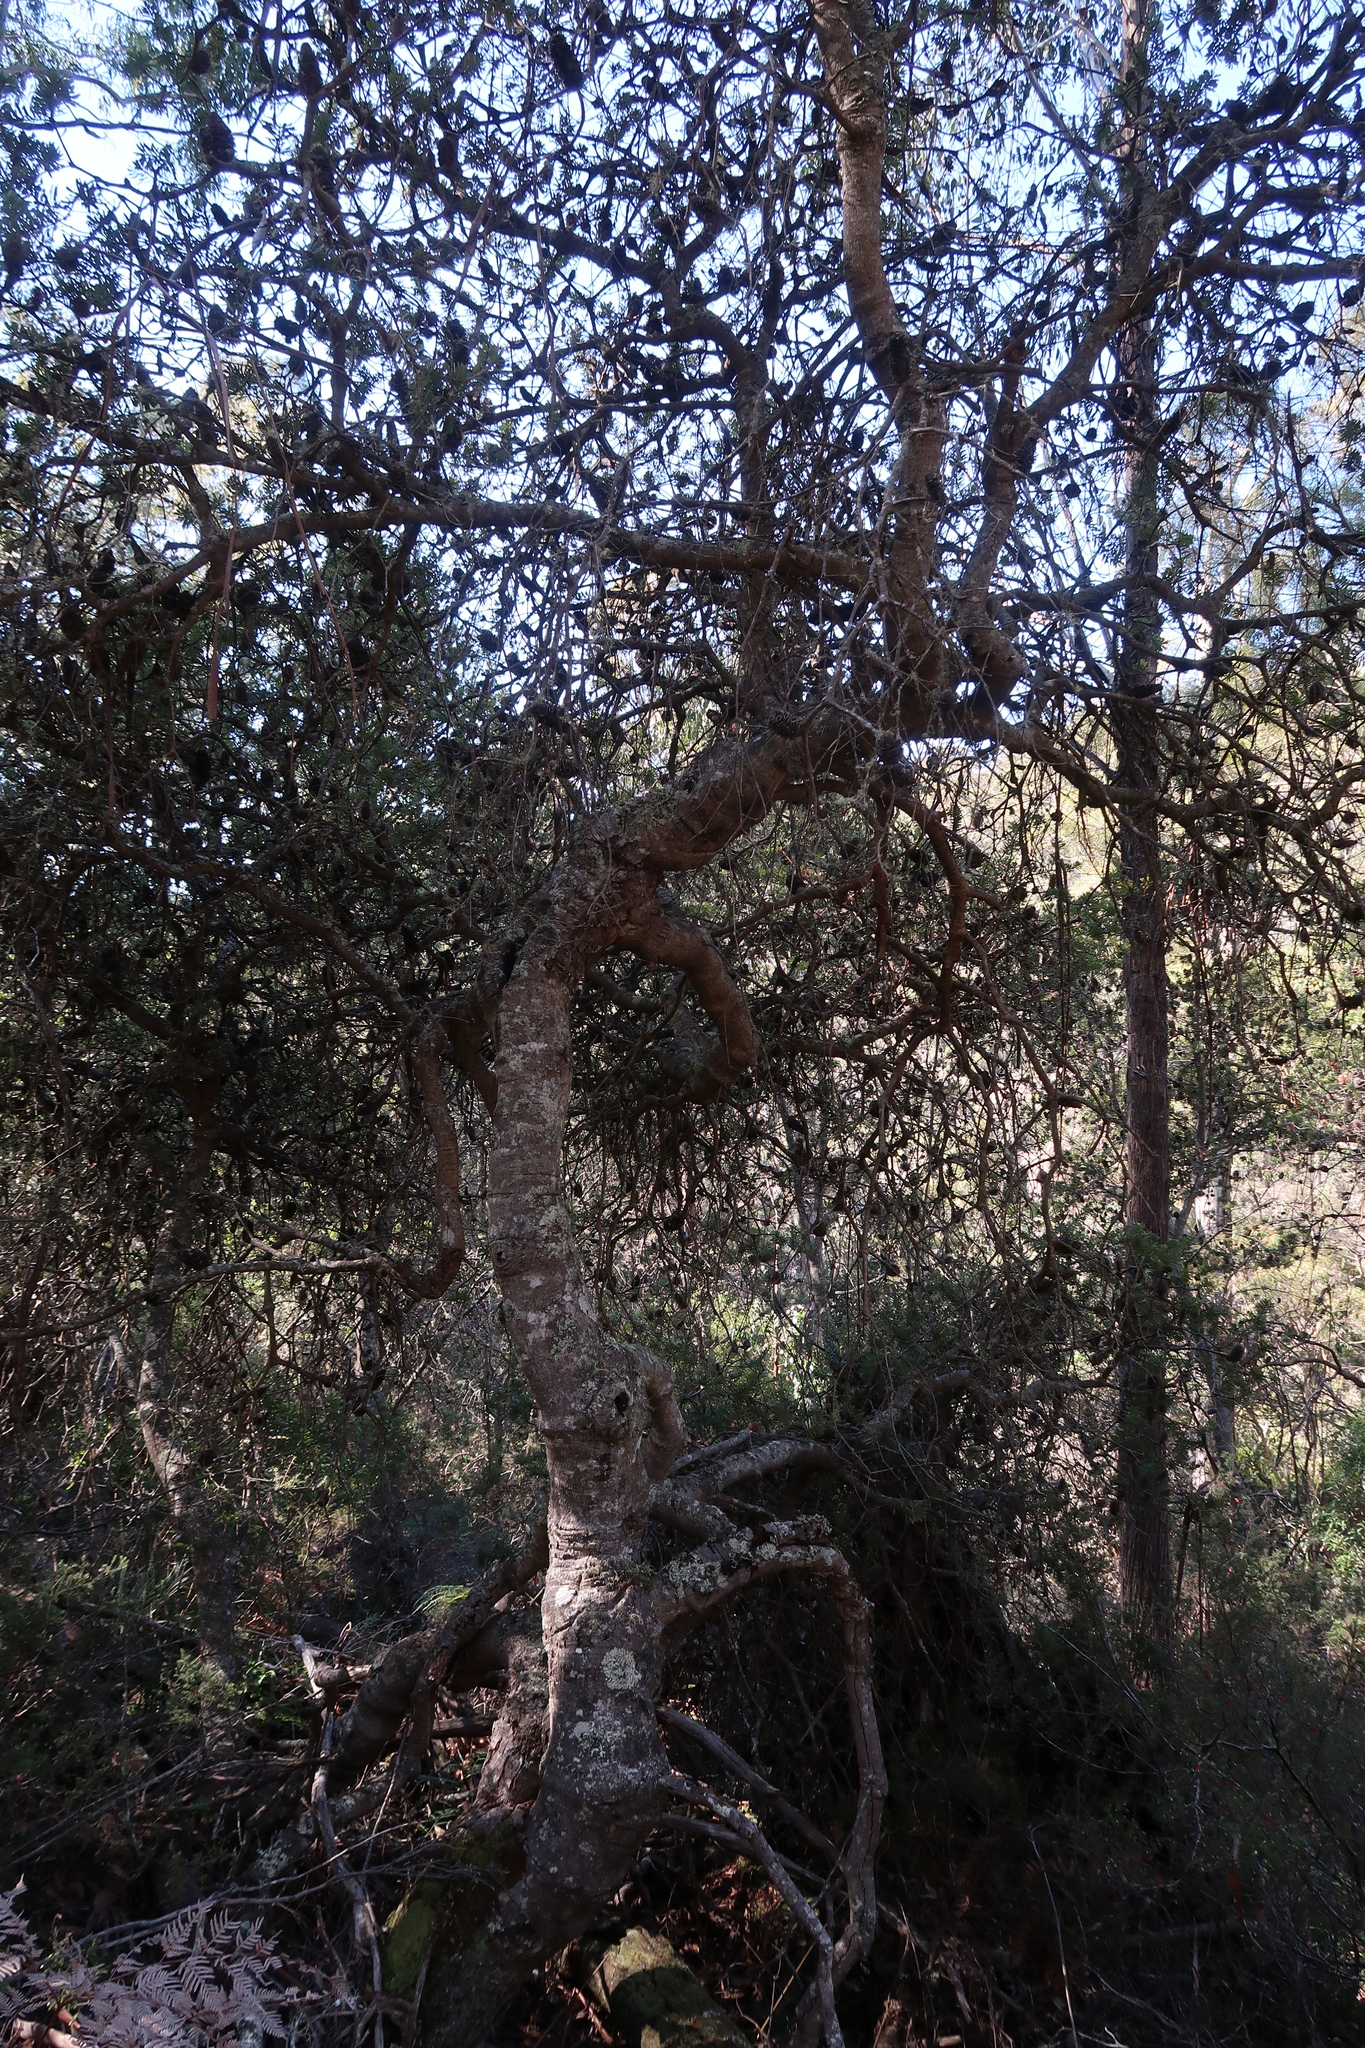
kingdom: Plantae
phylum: Tracheophyta
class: Magnoliopsida
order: Proteales
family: Proteaceae
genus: Banksia
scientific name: Banksia marginata
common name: Silver banksia
